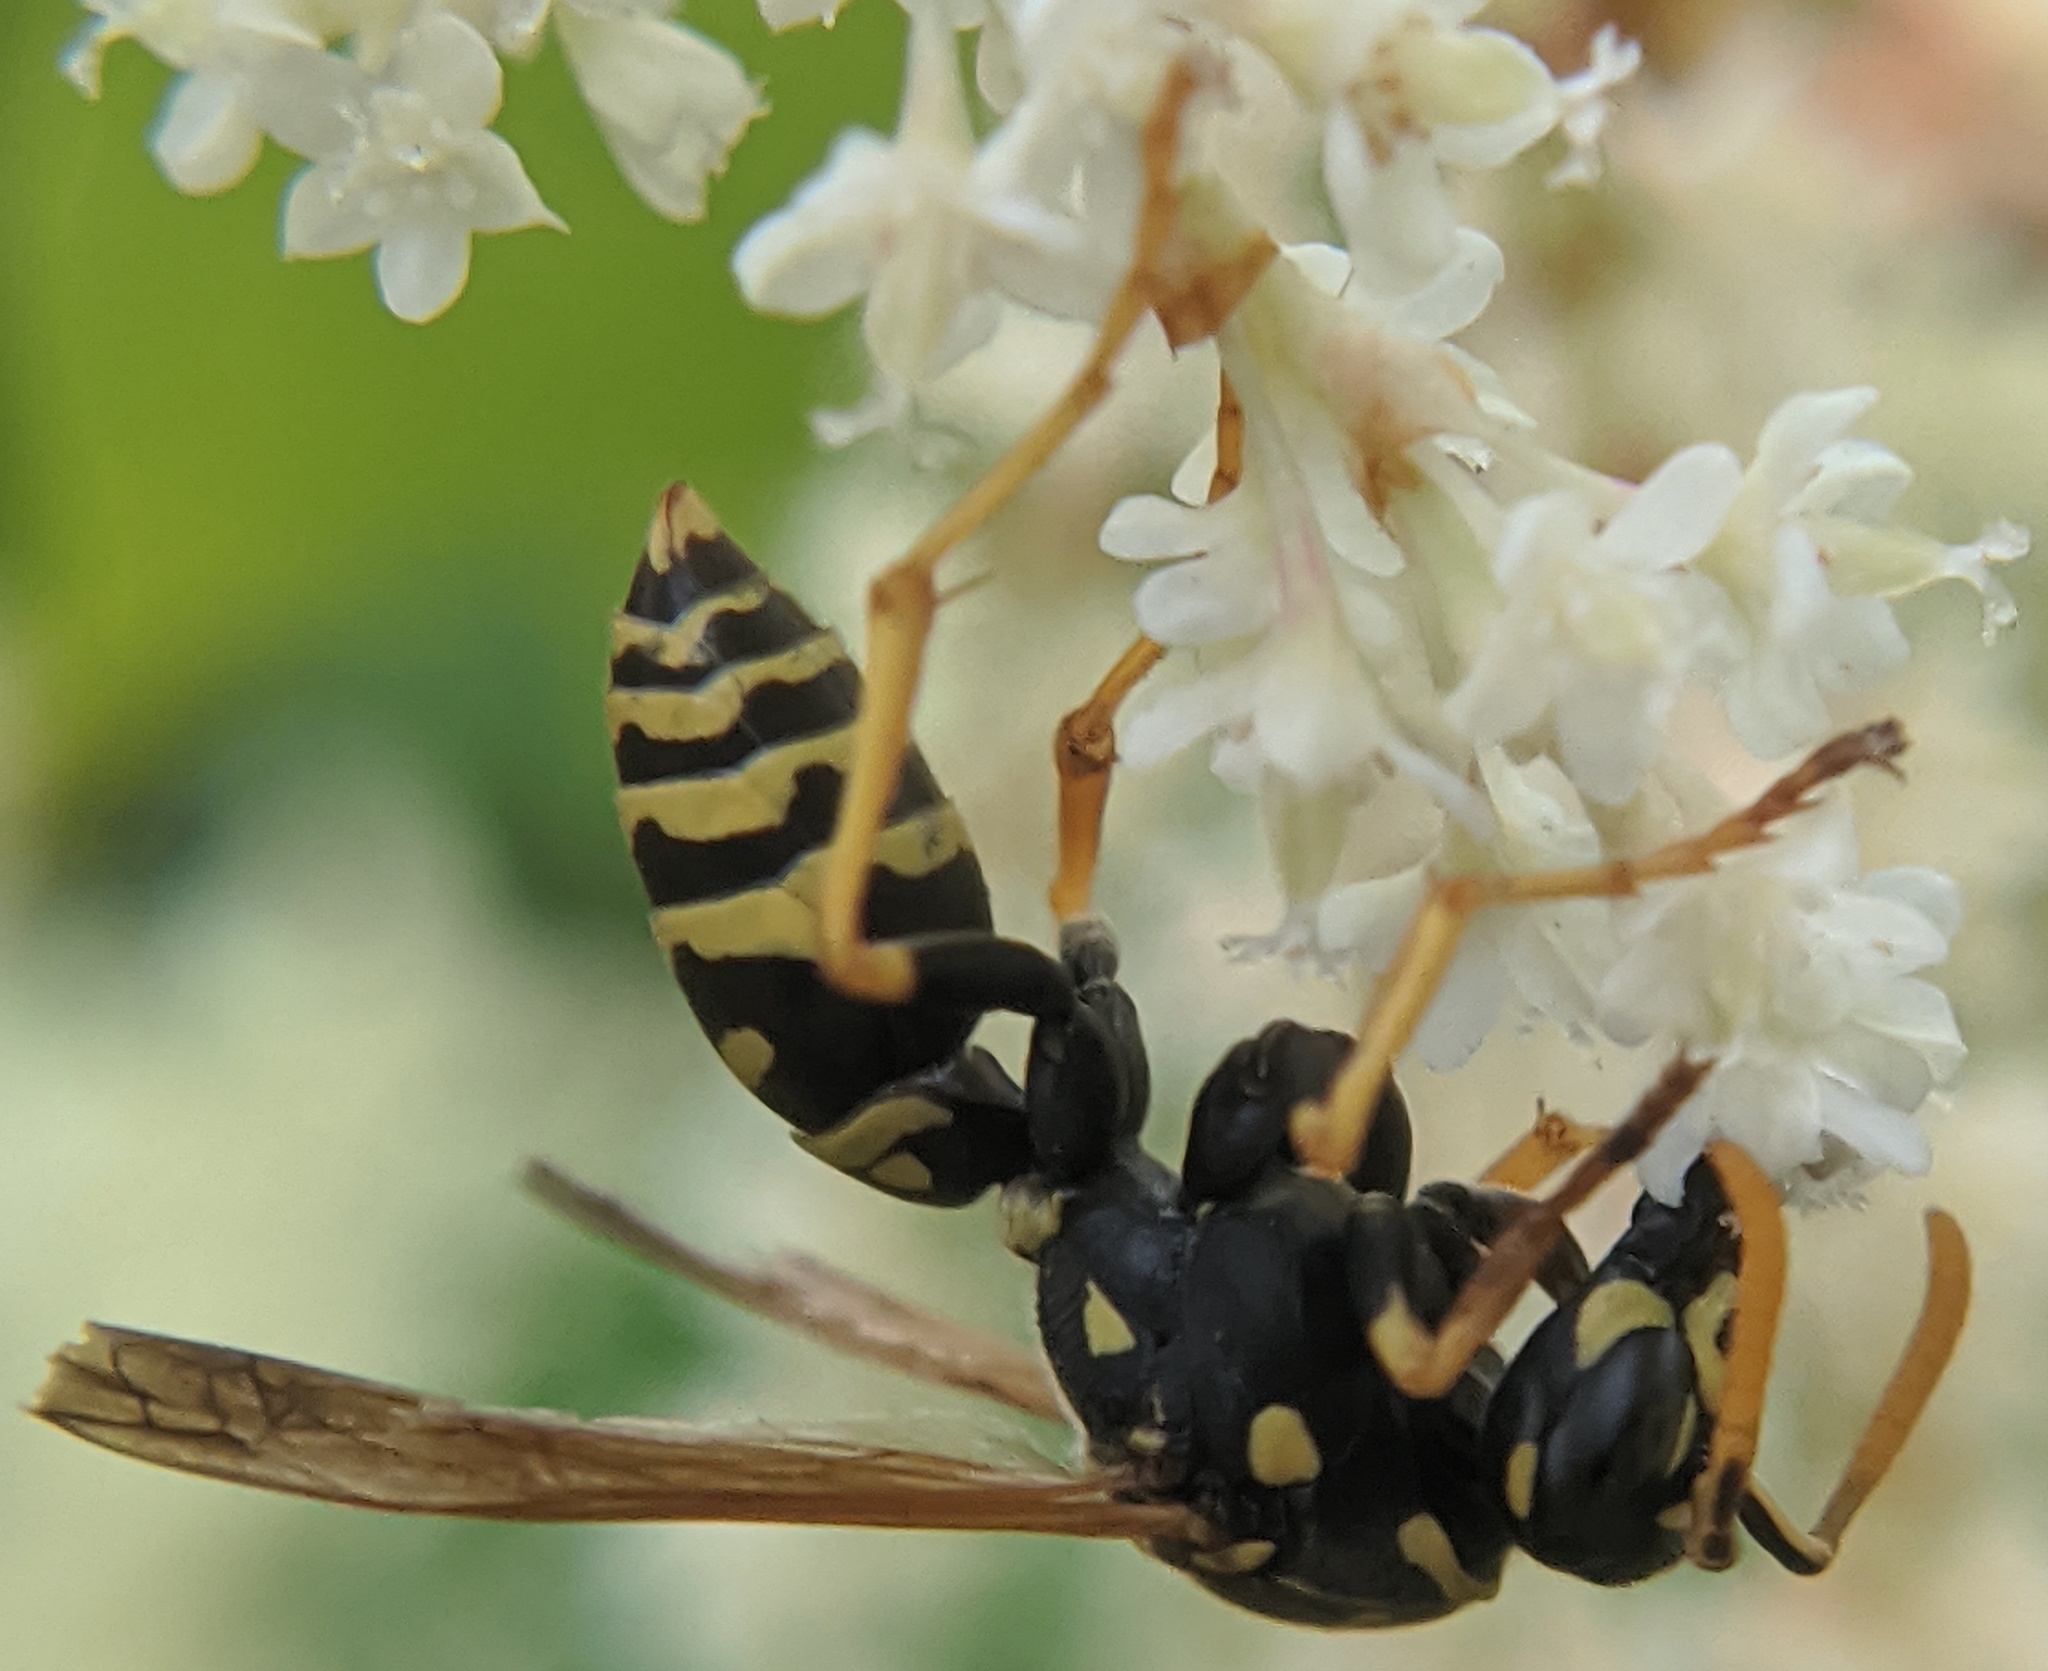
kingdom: Animalia
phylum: Arthropoda
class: Insecta
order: Hymenoptera
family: Eumenidae
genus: Polistes
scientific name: Polistes dominula
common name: Paper wasp
